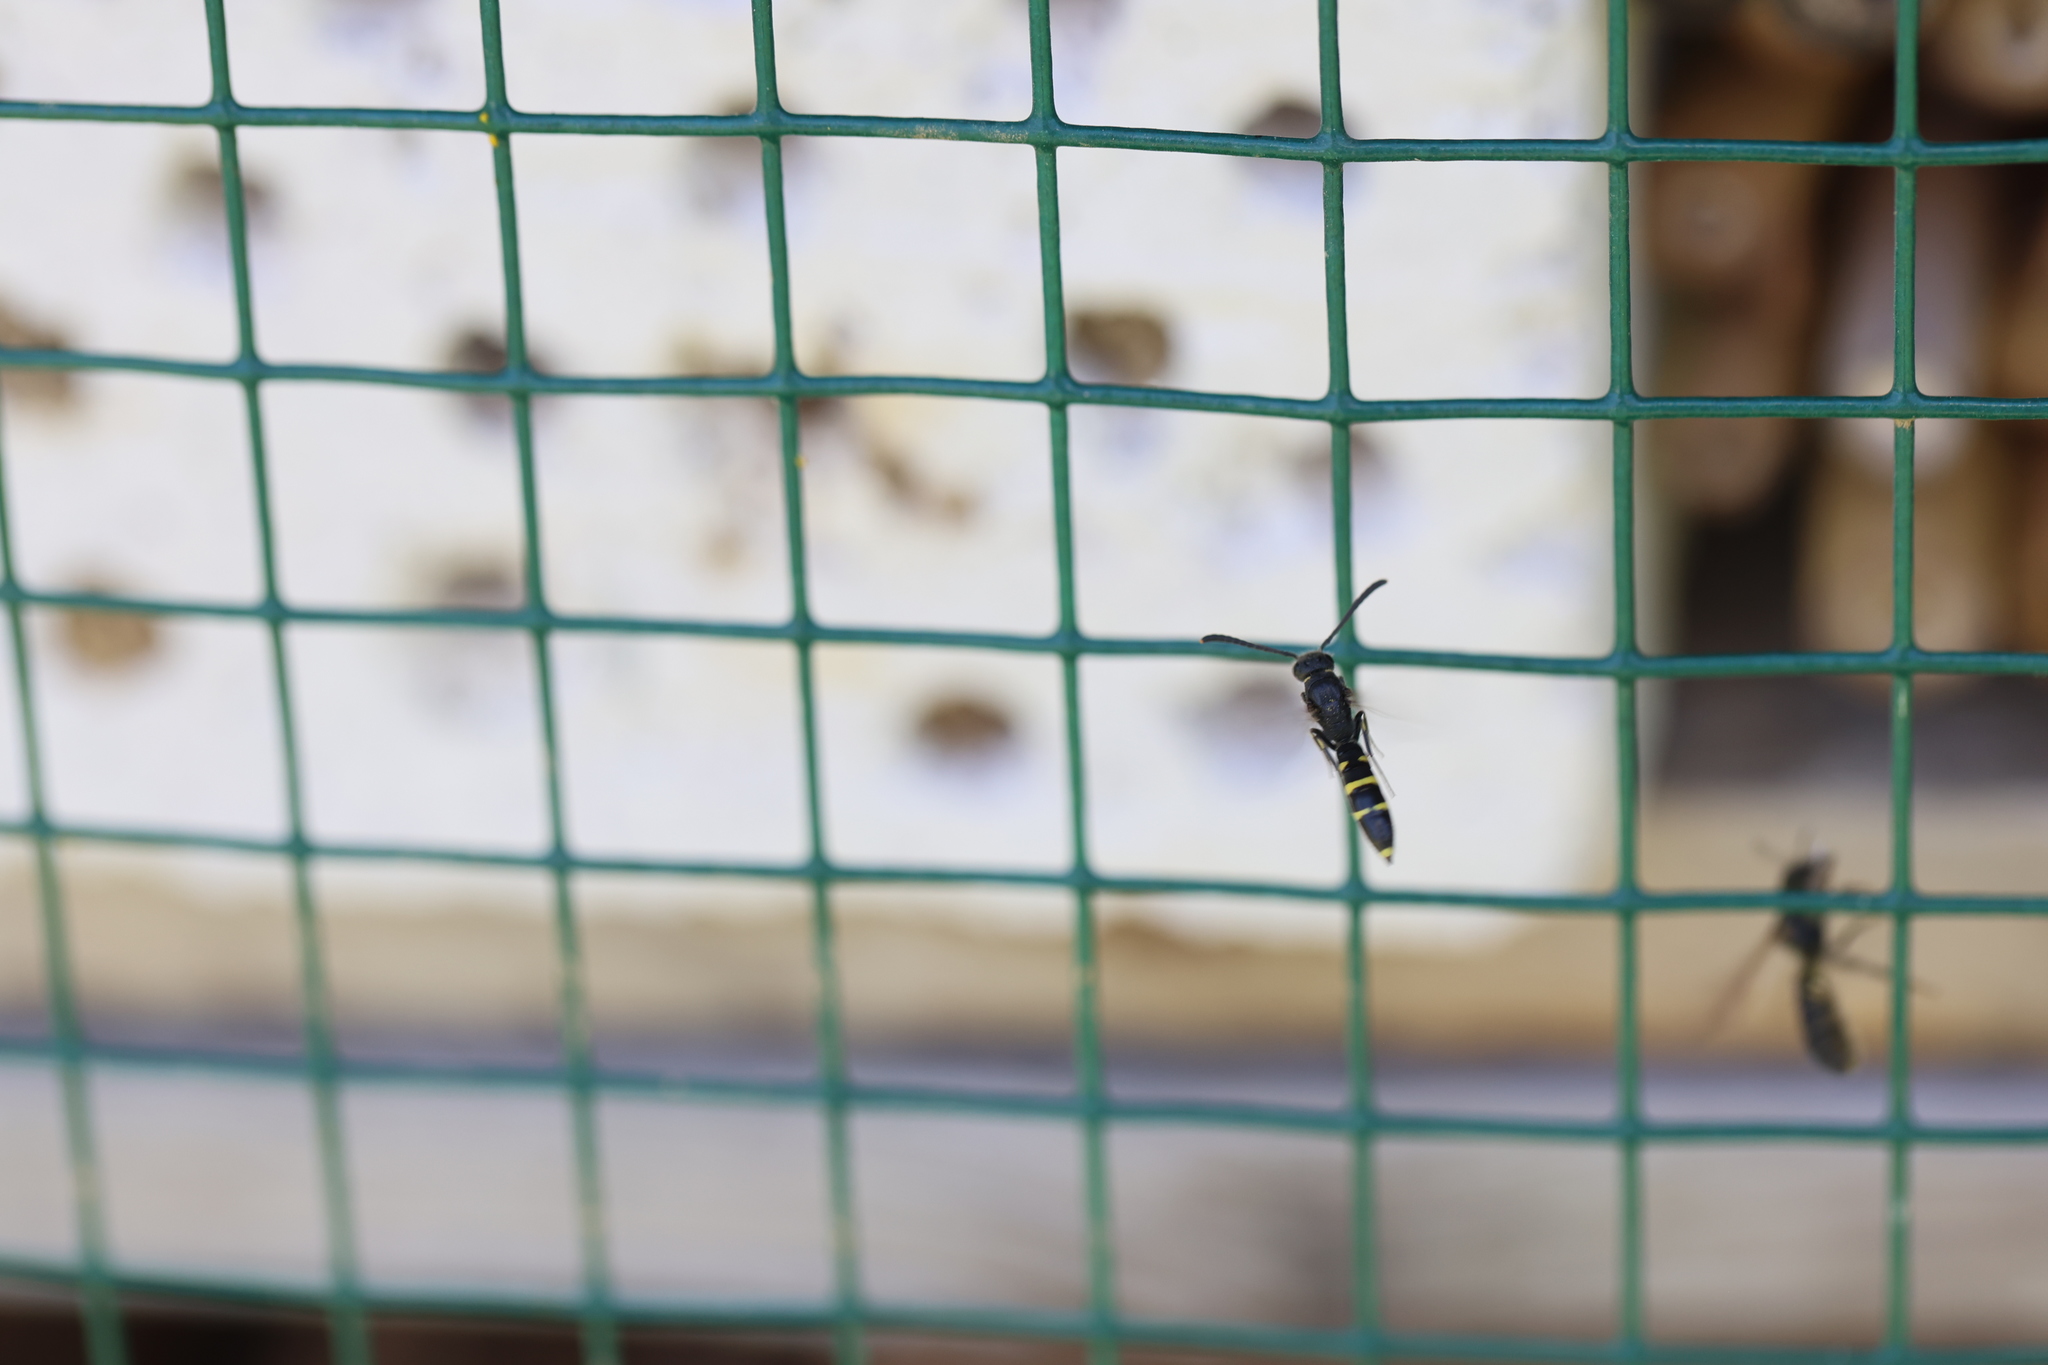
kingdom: Animalia
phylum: Arthropoda
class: Insecta
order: Hymenoptera
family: Sapygidae
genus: Monosapyga
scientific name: Monosapyga clavicornis
